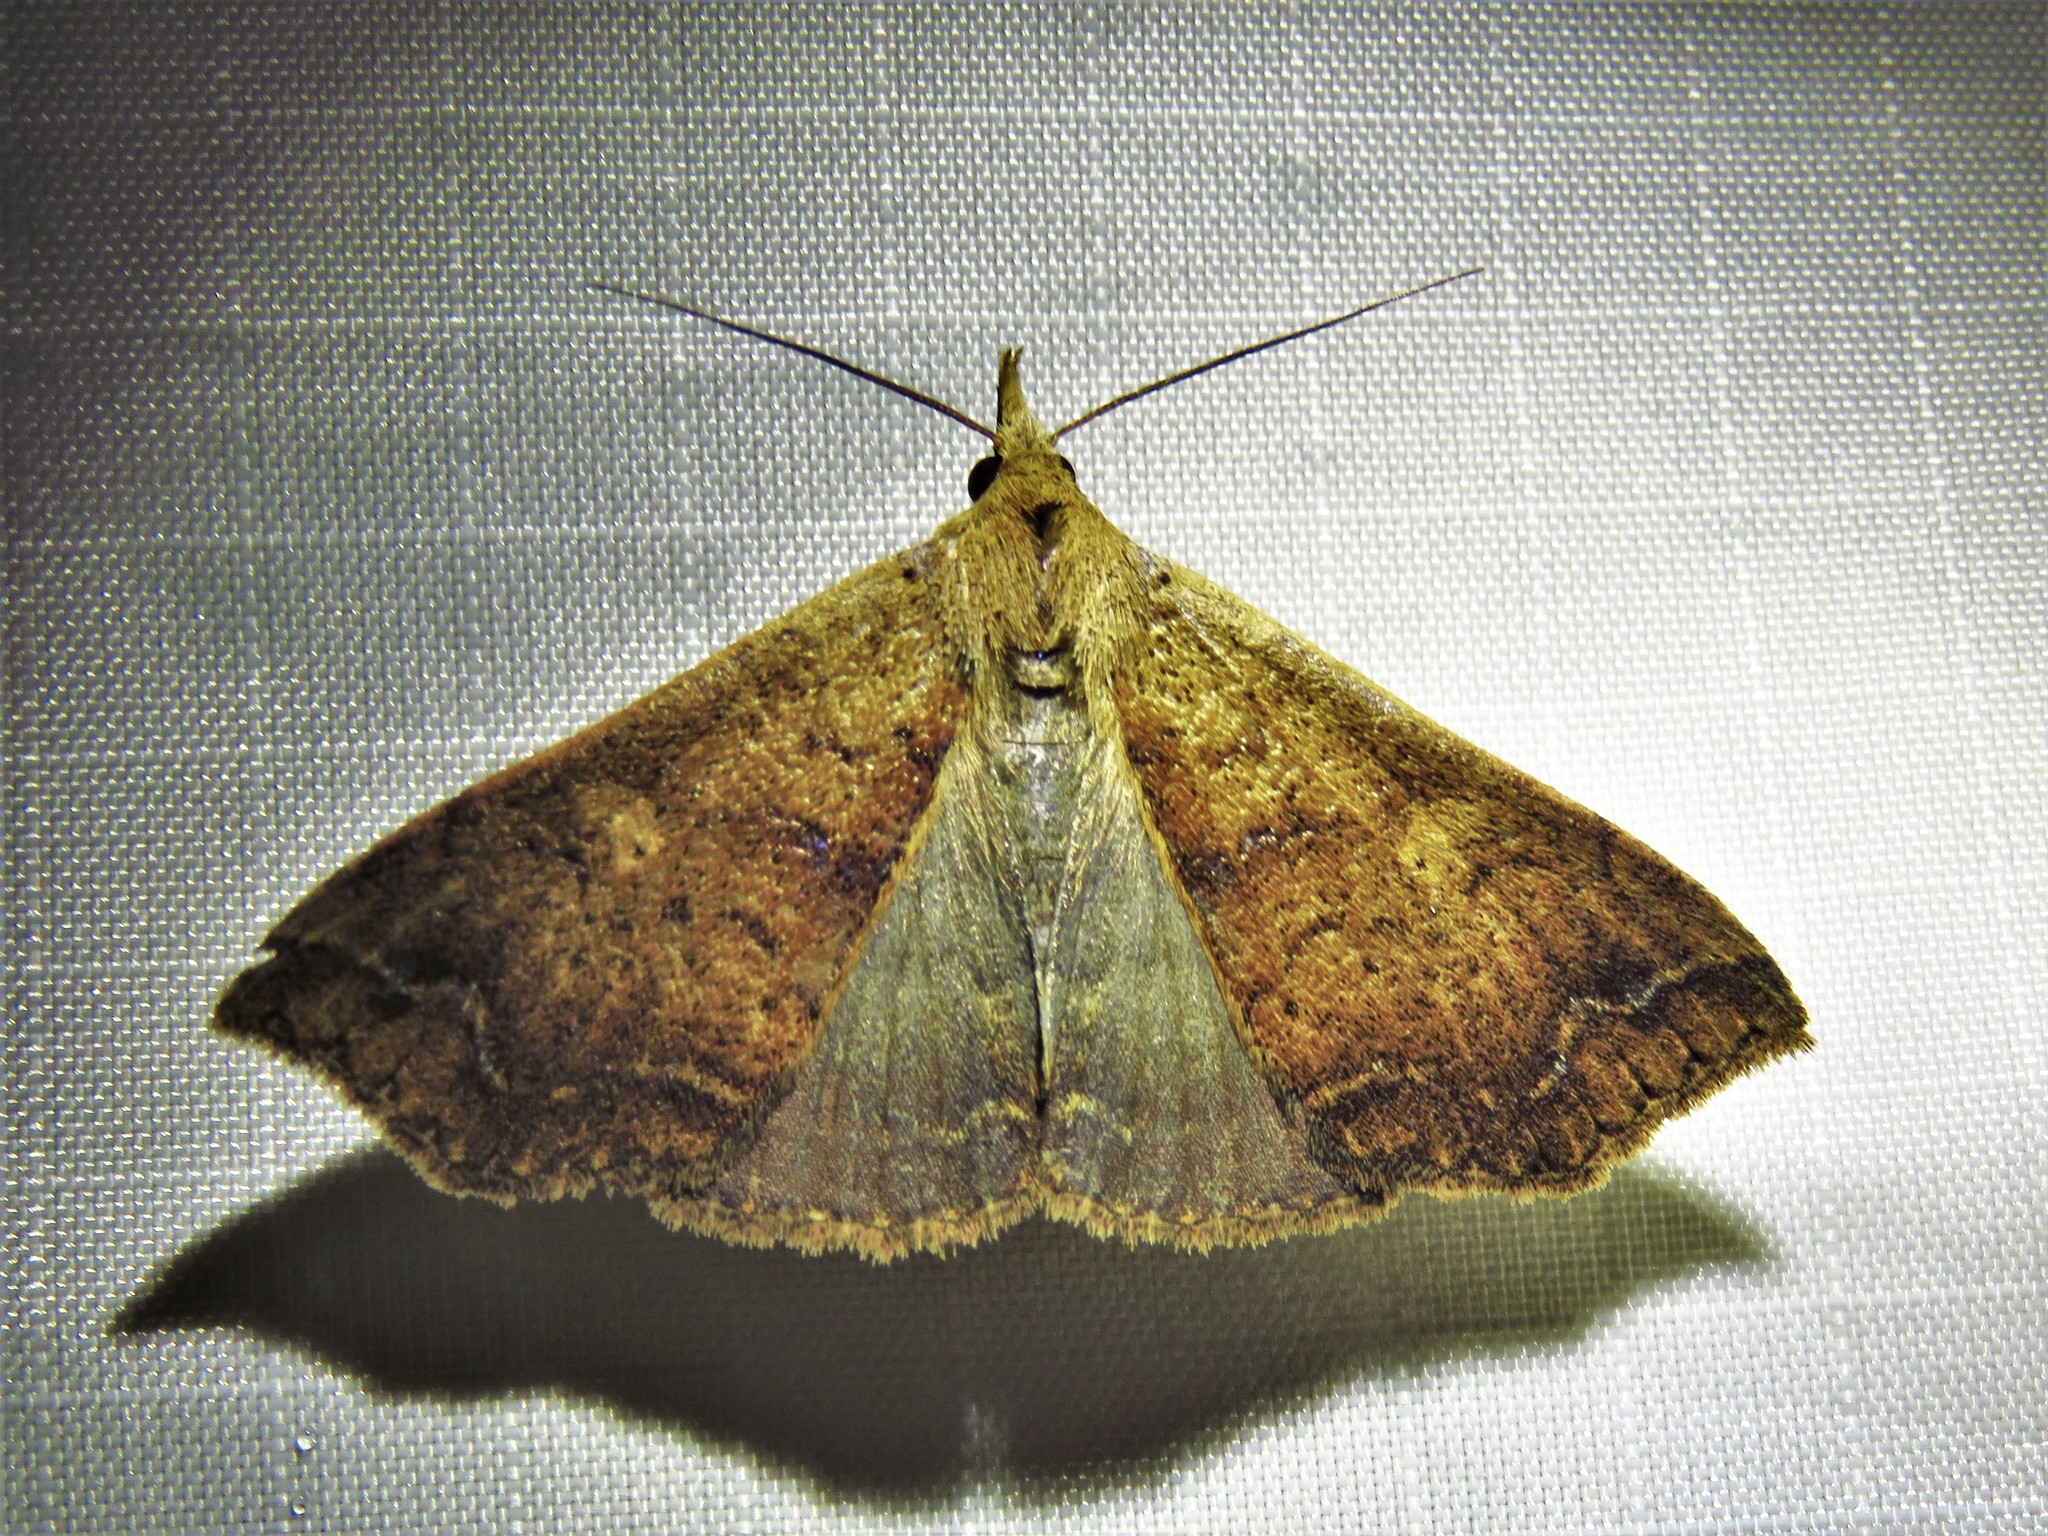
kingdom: Animalia
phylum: Arthropoda
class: Insecta
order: Lepidoptera
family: Erebidae
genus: Renia
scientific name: Renia discoloralis
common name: Discolored renia moth
